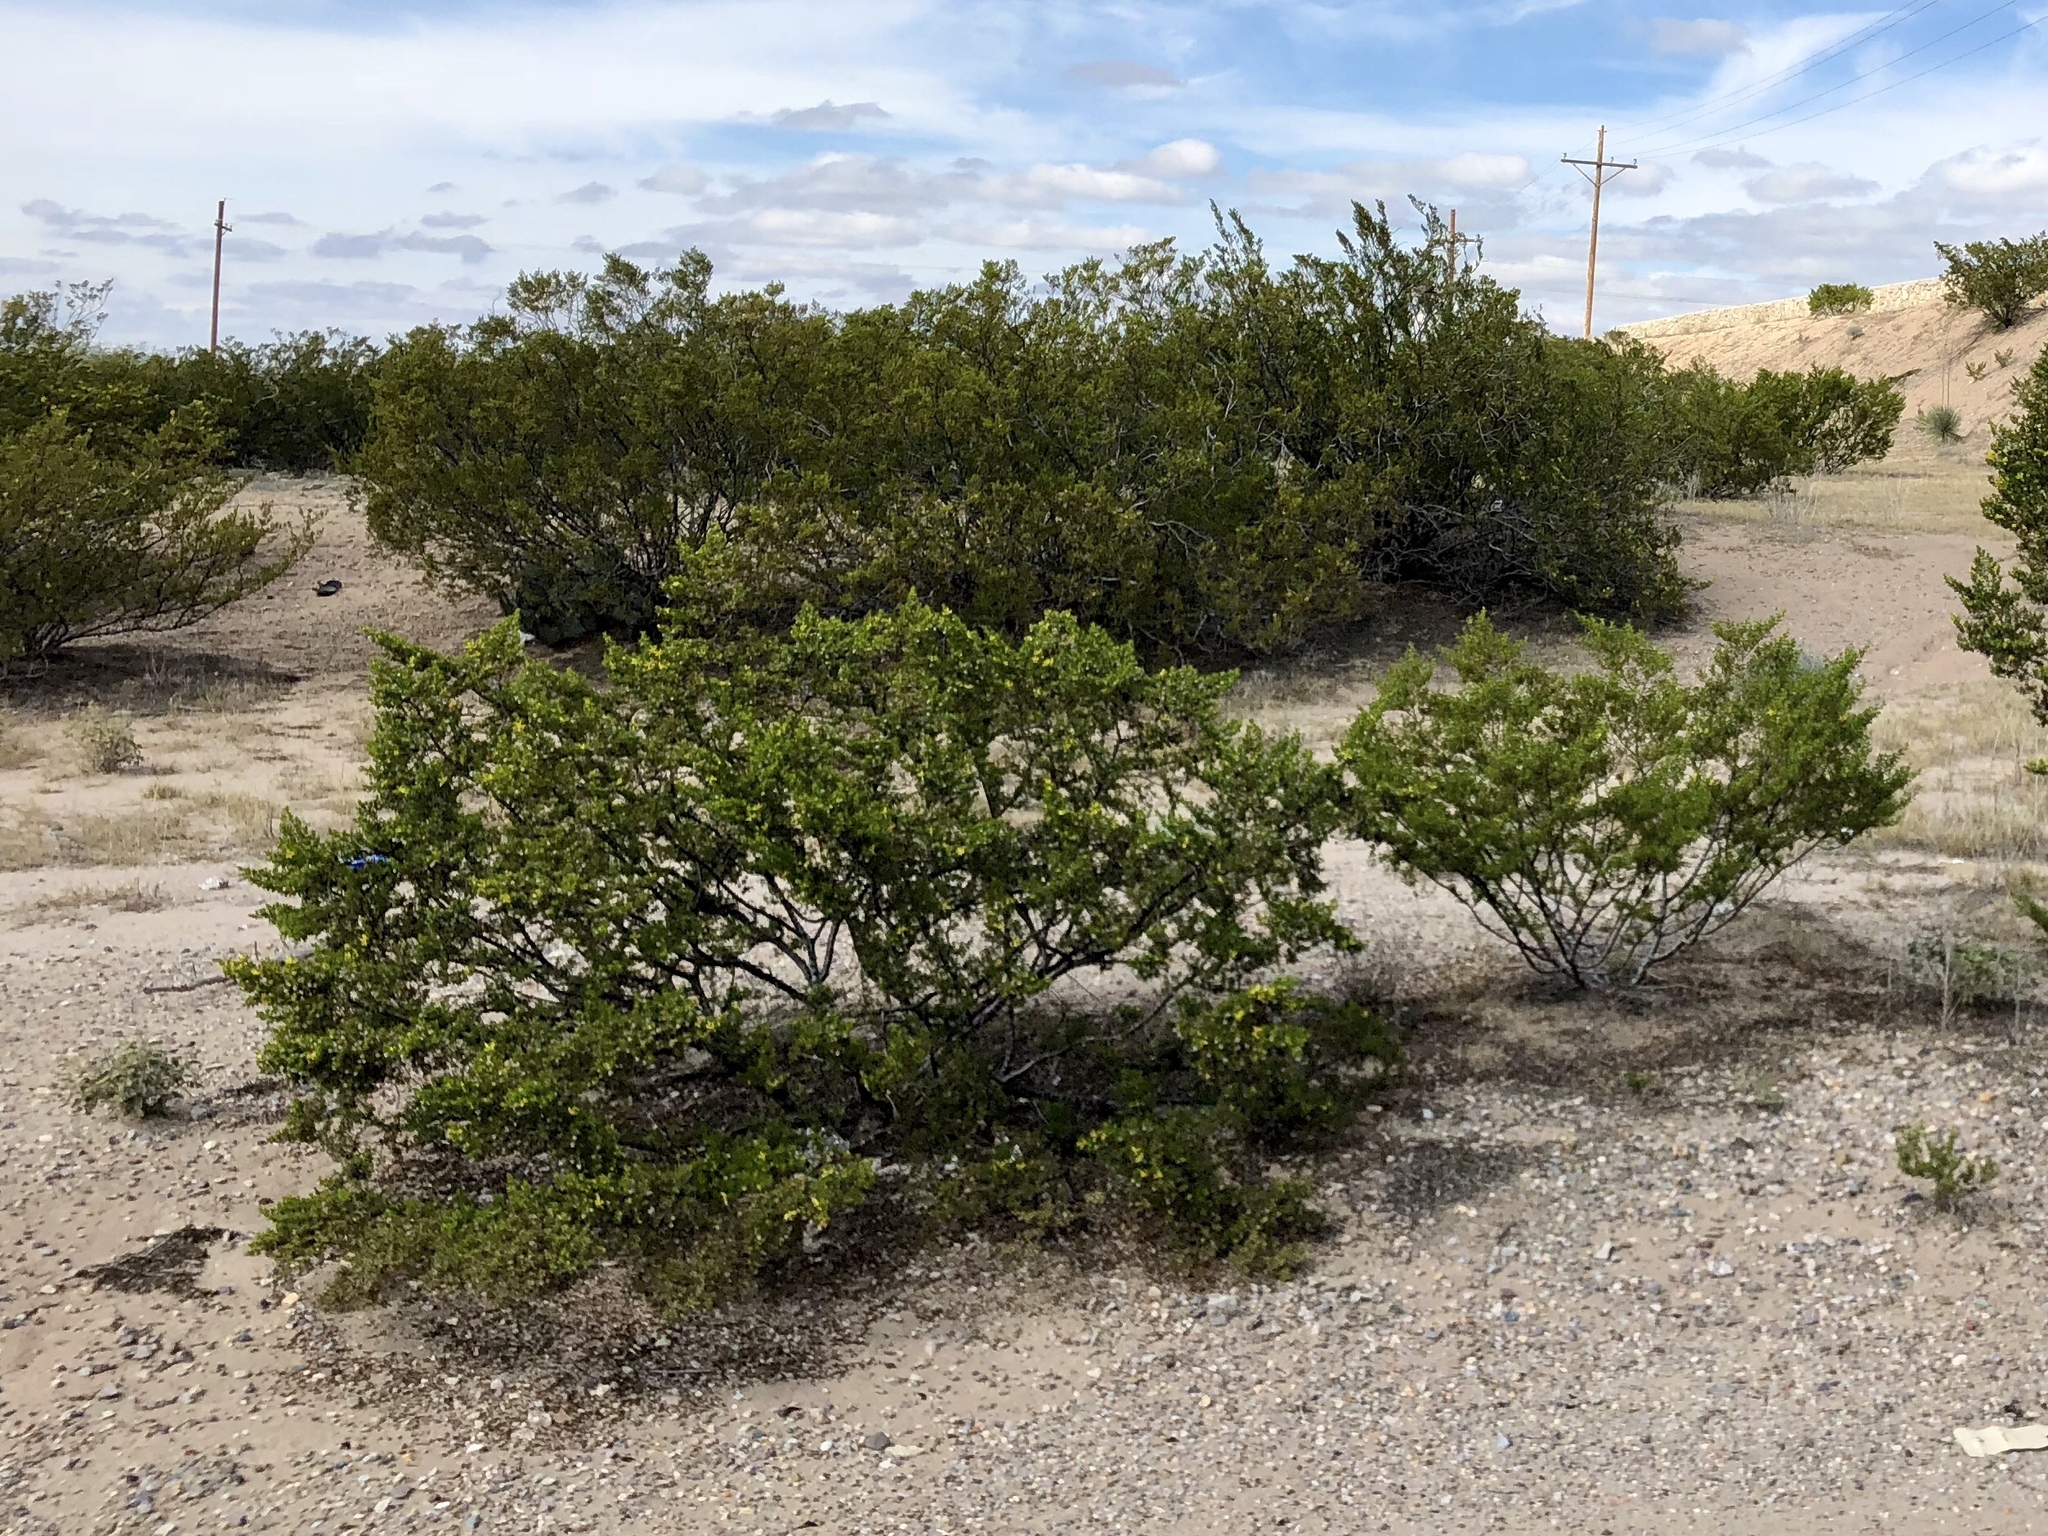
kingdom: Plantae
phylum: Tracheophyta
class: Magnoliopsida
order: Zygophyllales
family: Zygophyllaceae
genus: Larrea
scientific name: Larrea tridentata
